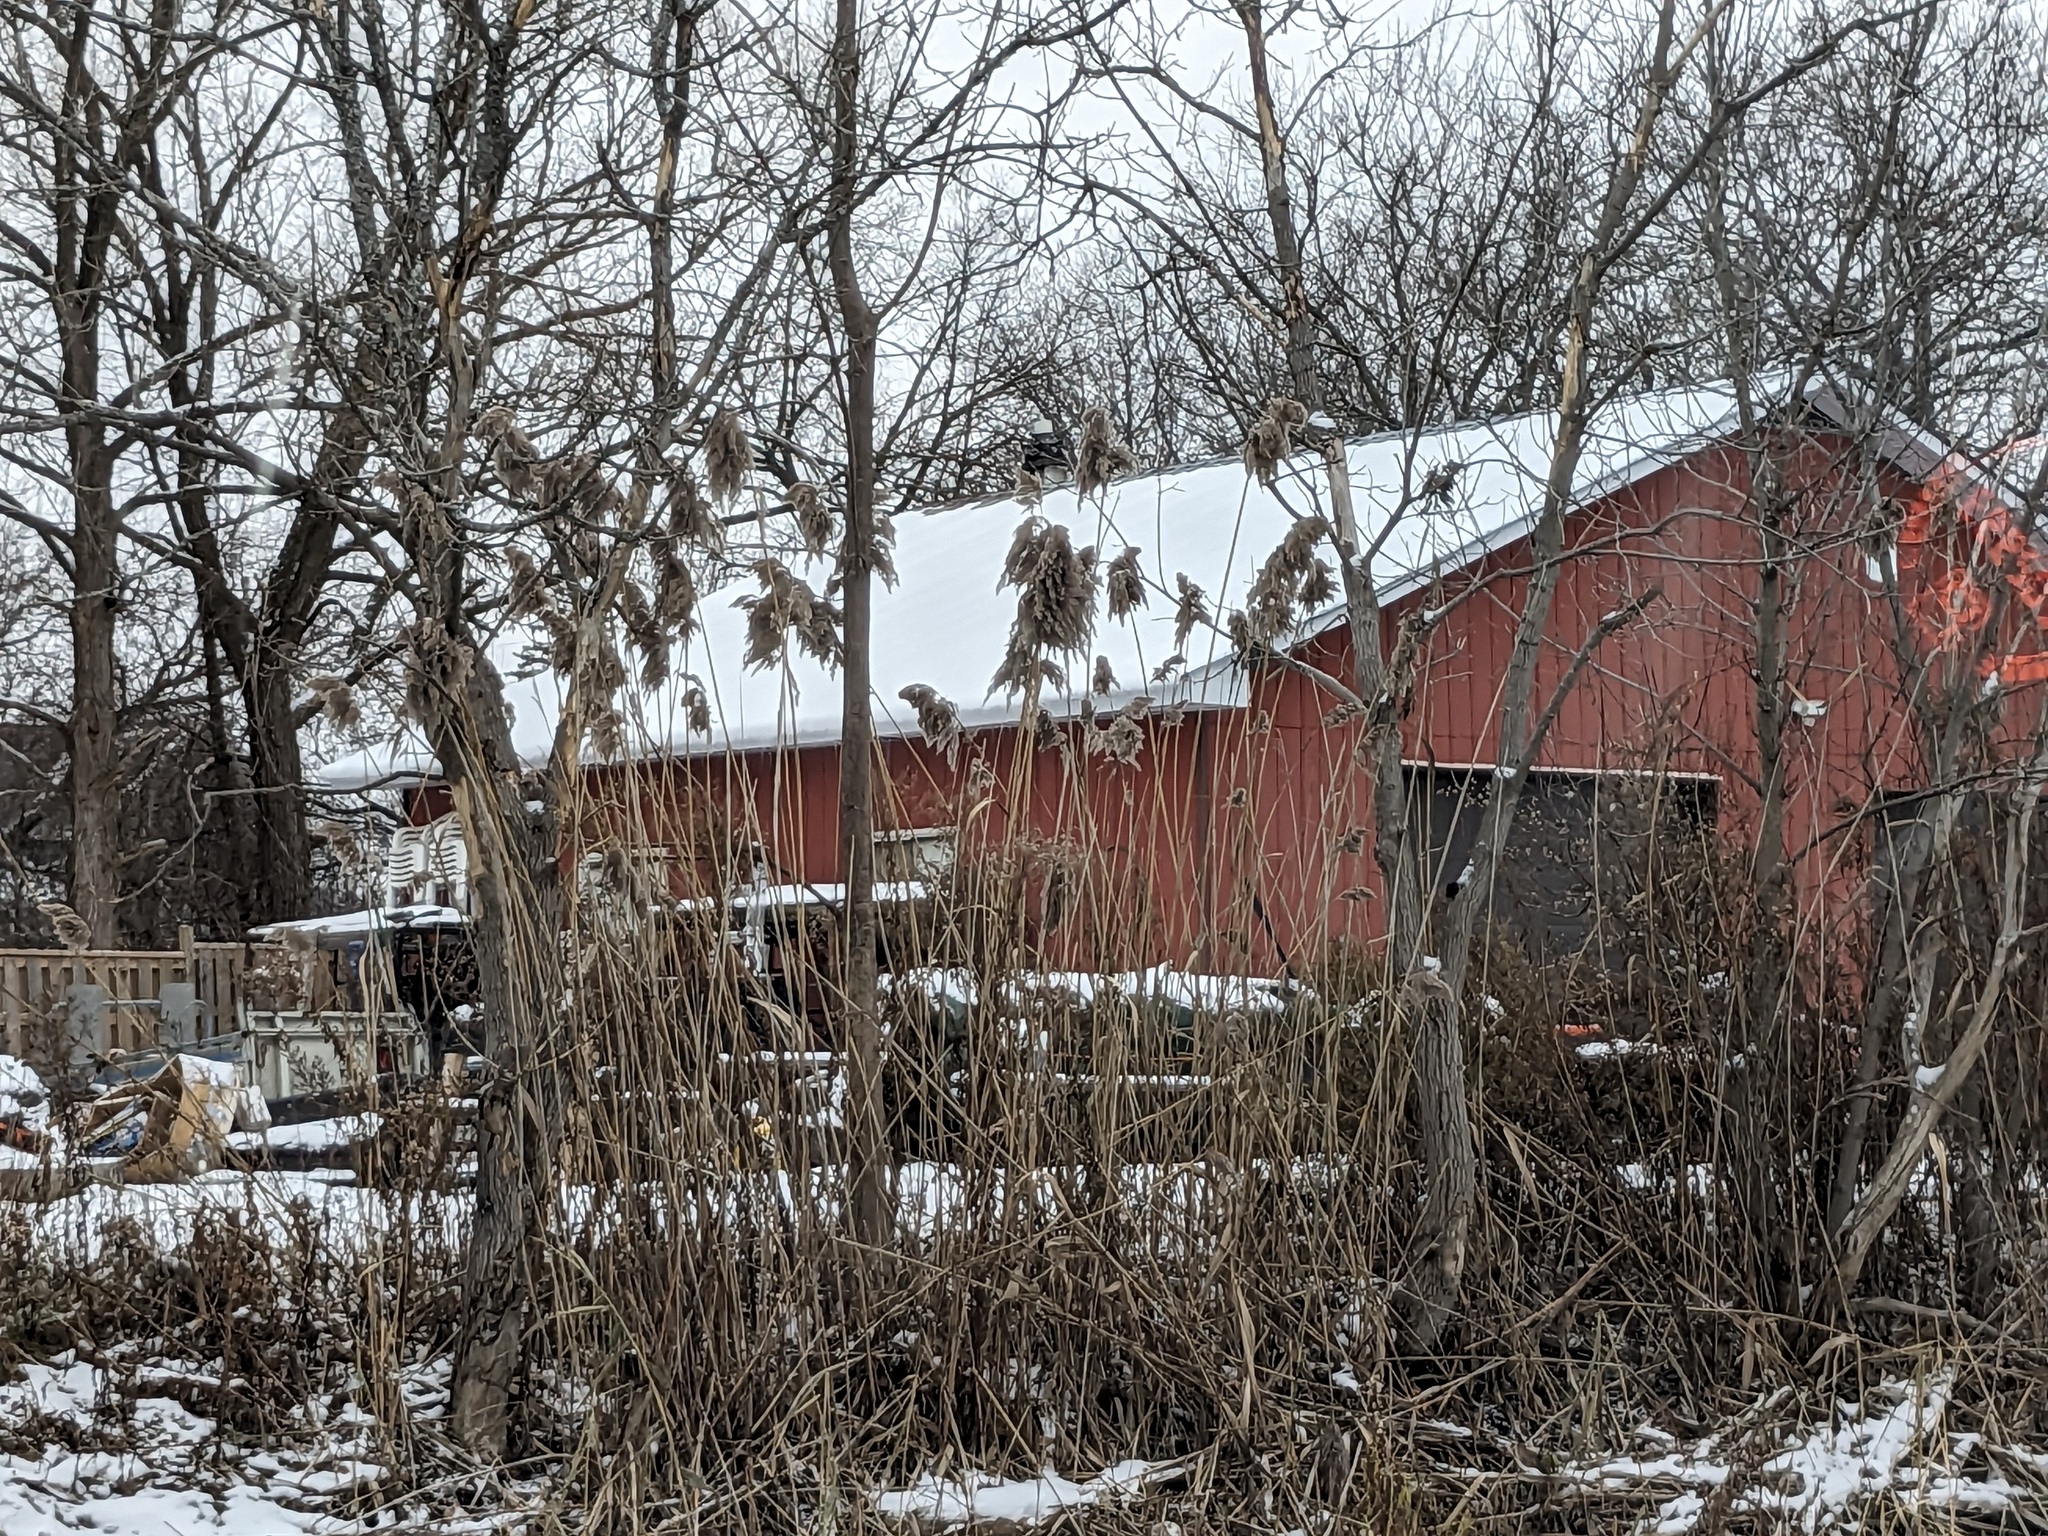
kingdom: Plantae
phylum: Tracheophyta
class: Liliopsida
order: Poales
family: Poaceae
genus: Phragmites
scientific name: Phragmites australis
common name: Common reed
